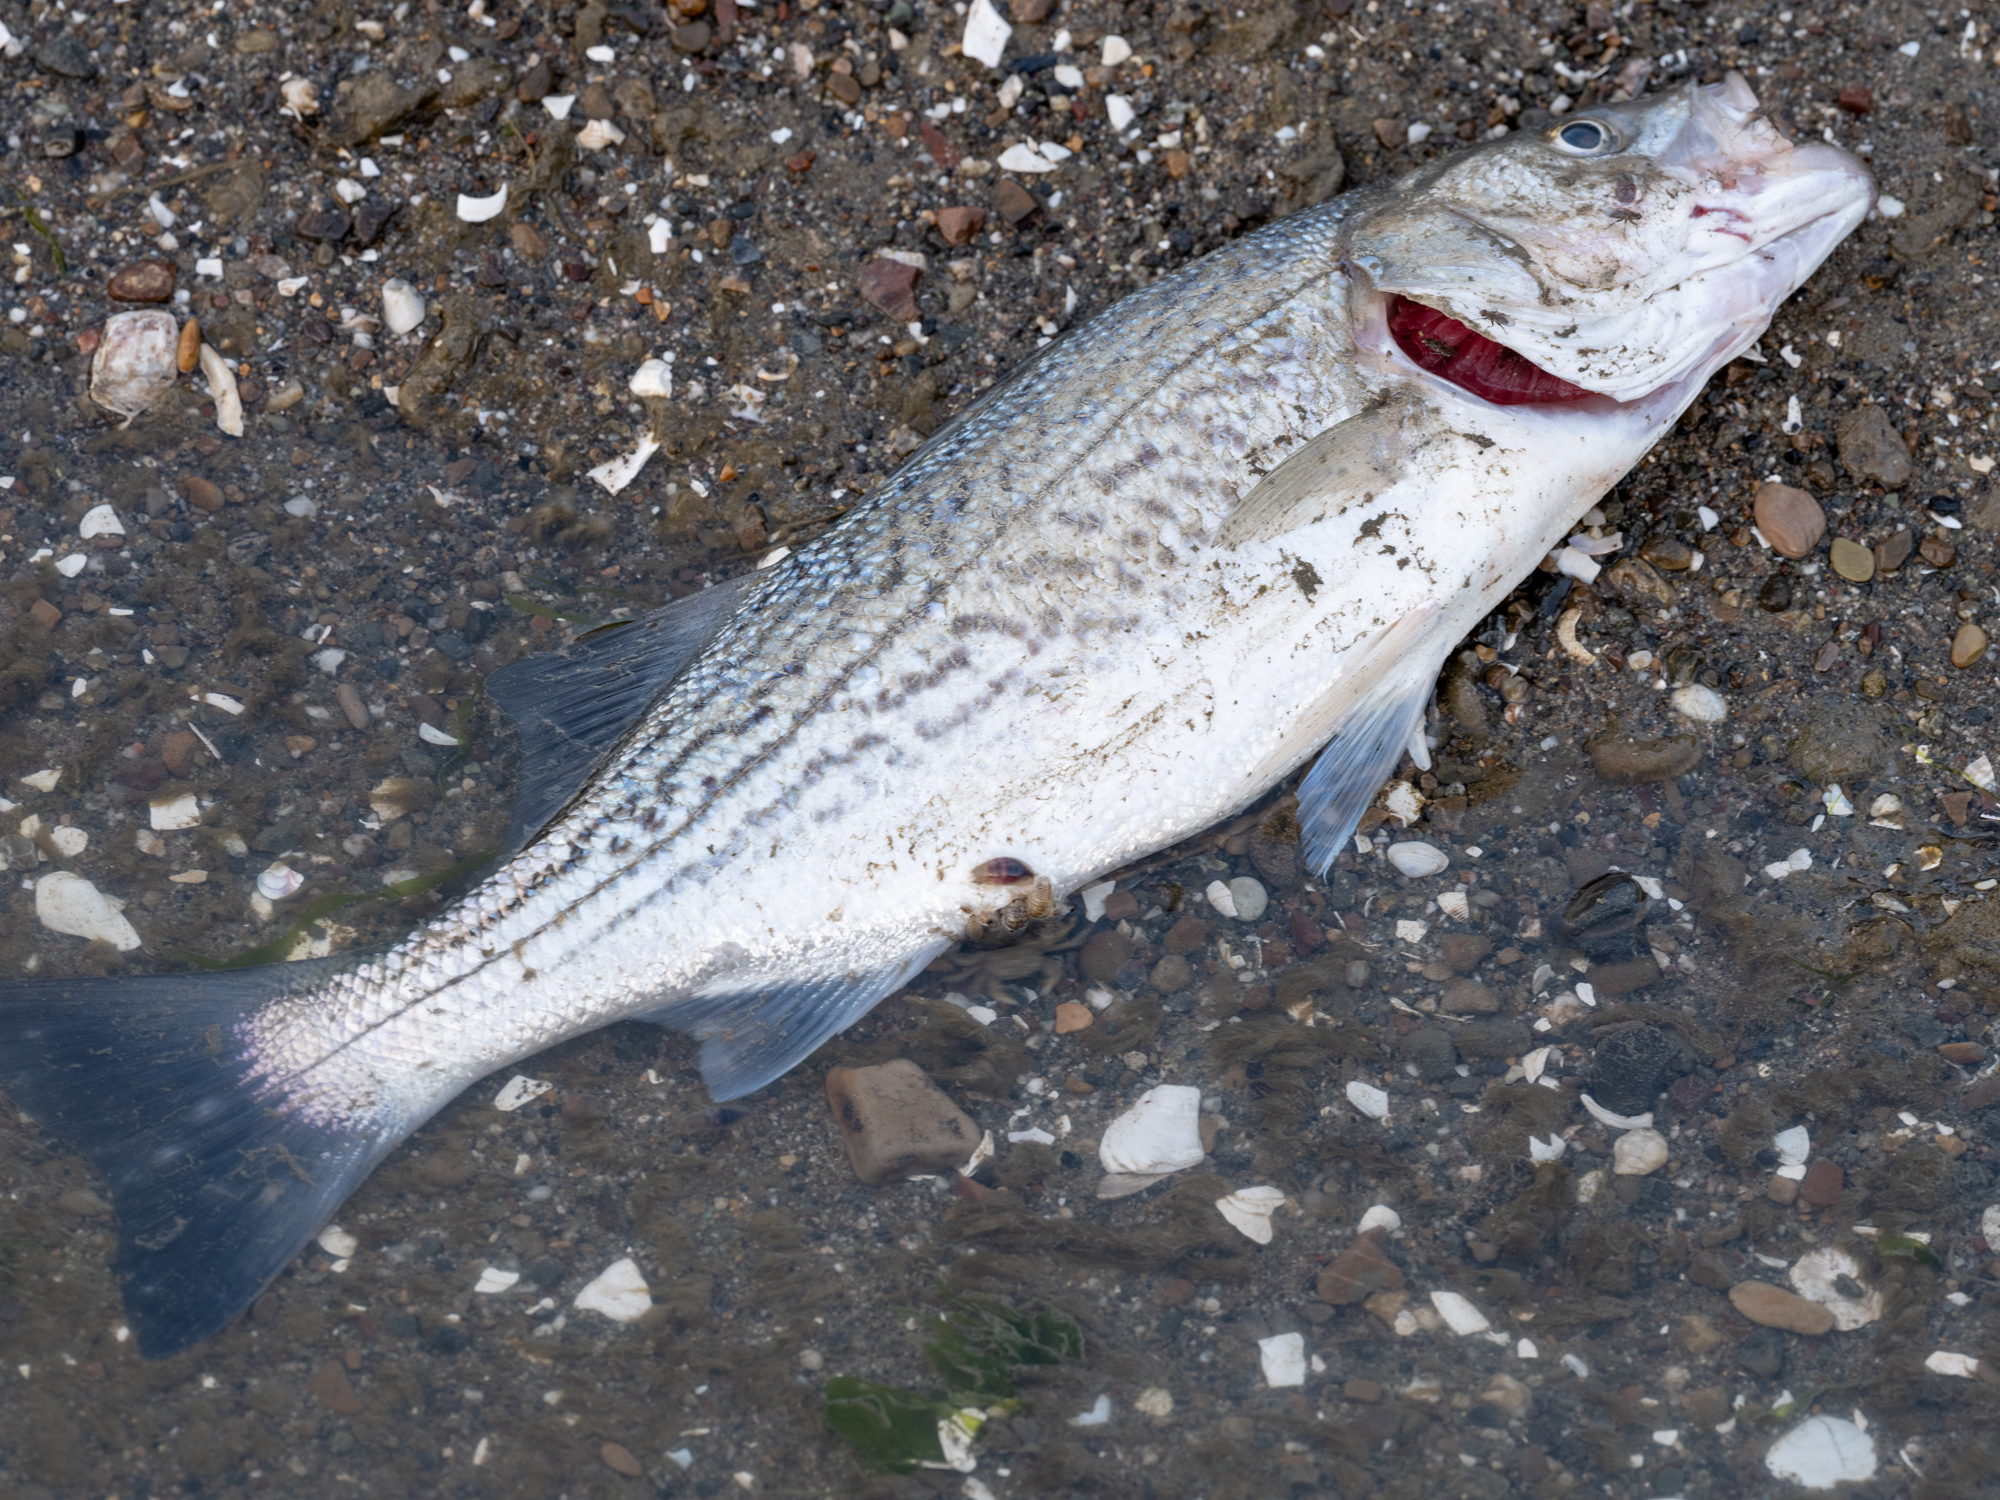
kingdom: Animalia
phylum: Chordata
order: Perciformes
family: Moronidae
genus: Morone
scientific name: Morone saxatilis
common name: Striped bass
